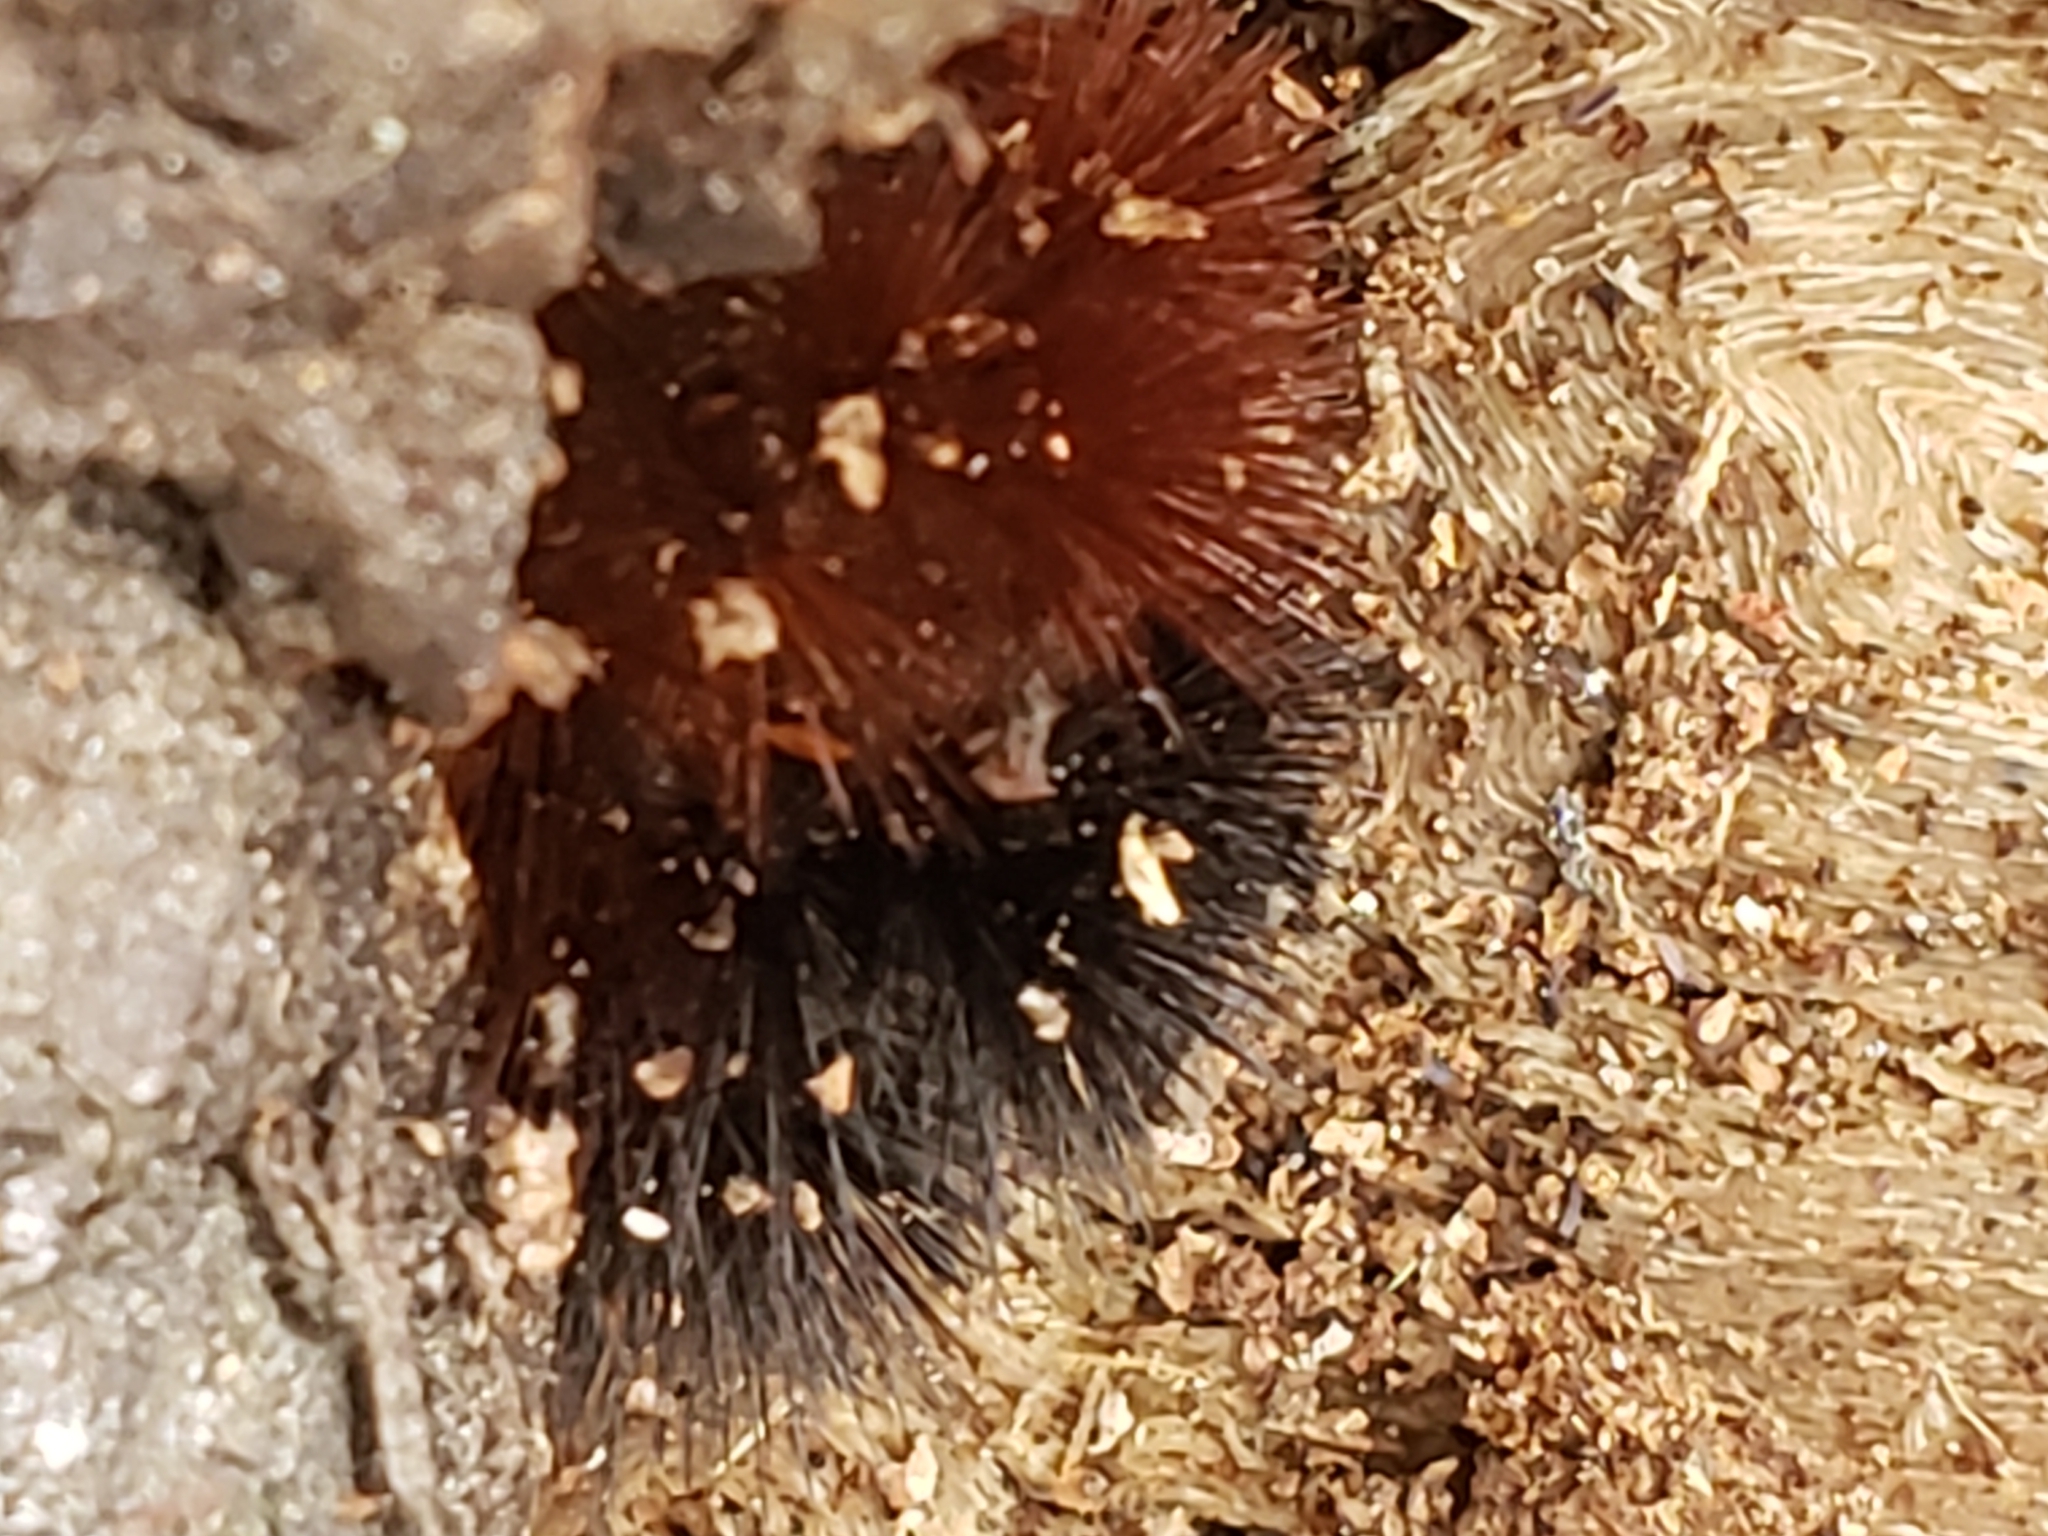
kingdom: Animalia
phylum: Arthropoda
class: Insecta
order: Lepidoptera
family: Erebidae
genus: Pyrrharctia
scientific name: Pyrrharctia isabella
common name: Isabella tiger moth
